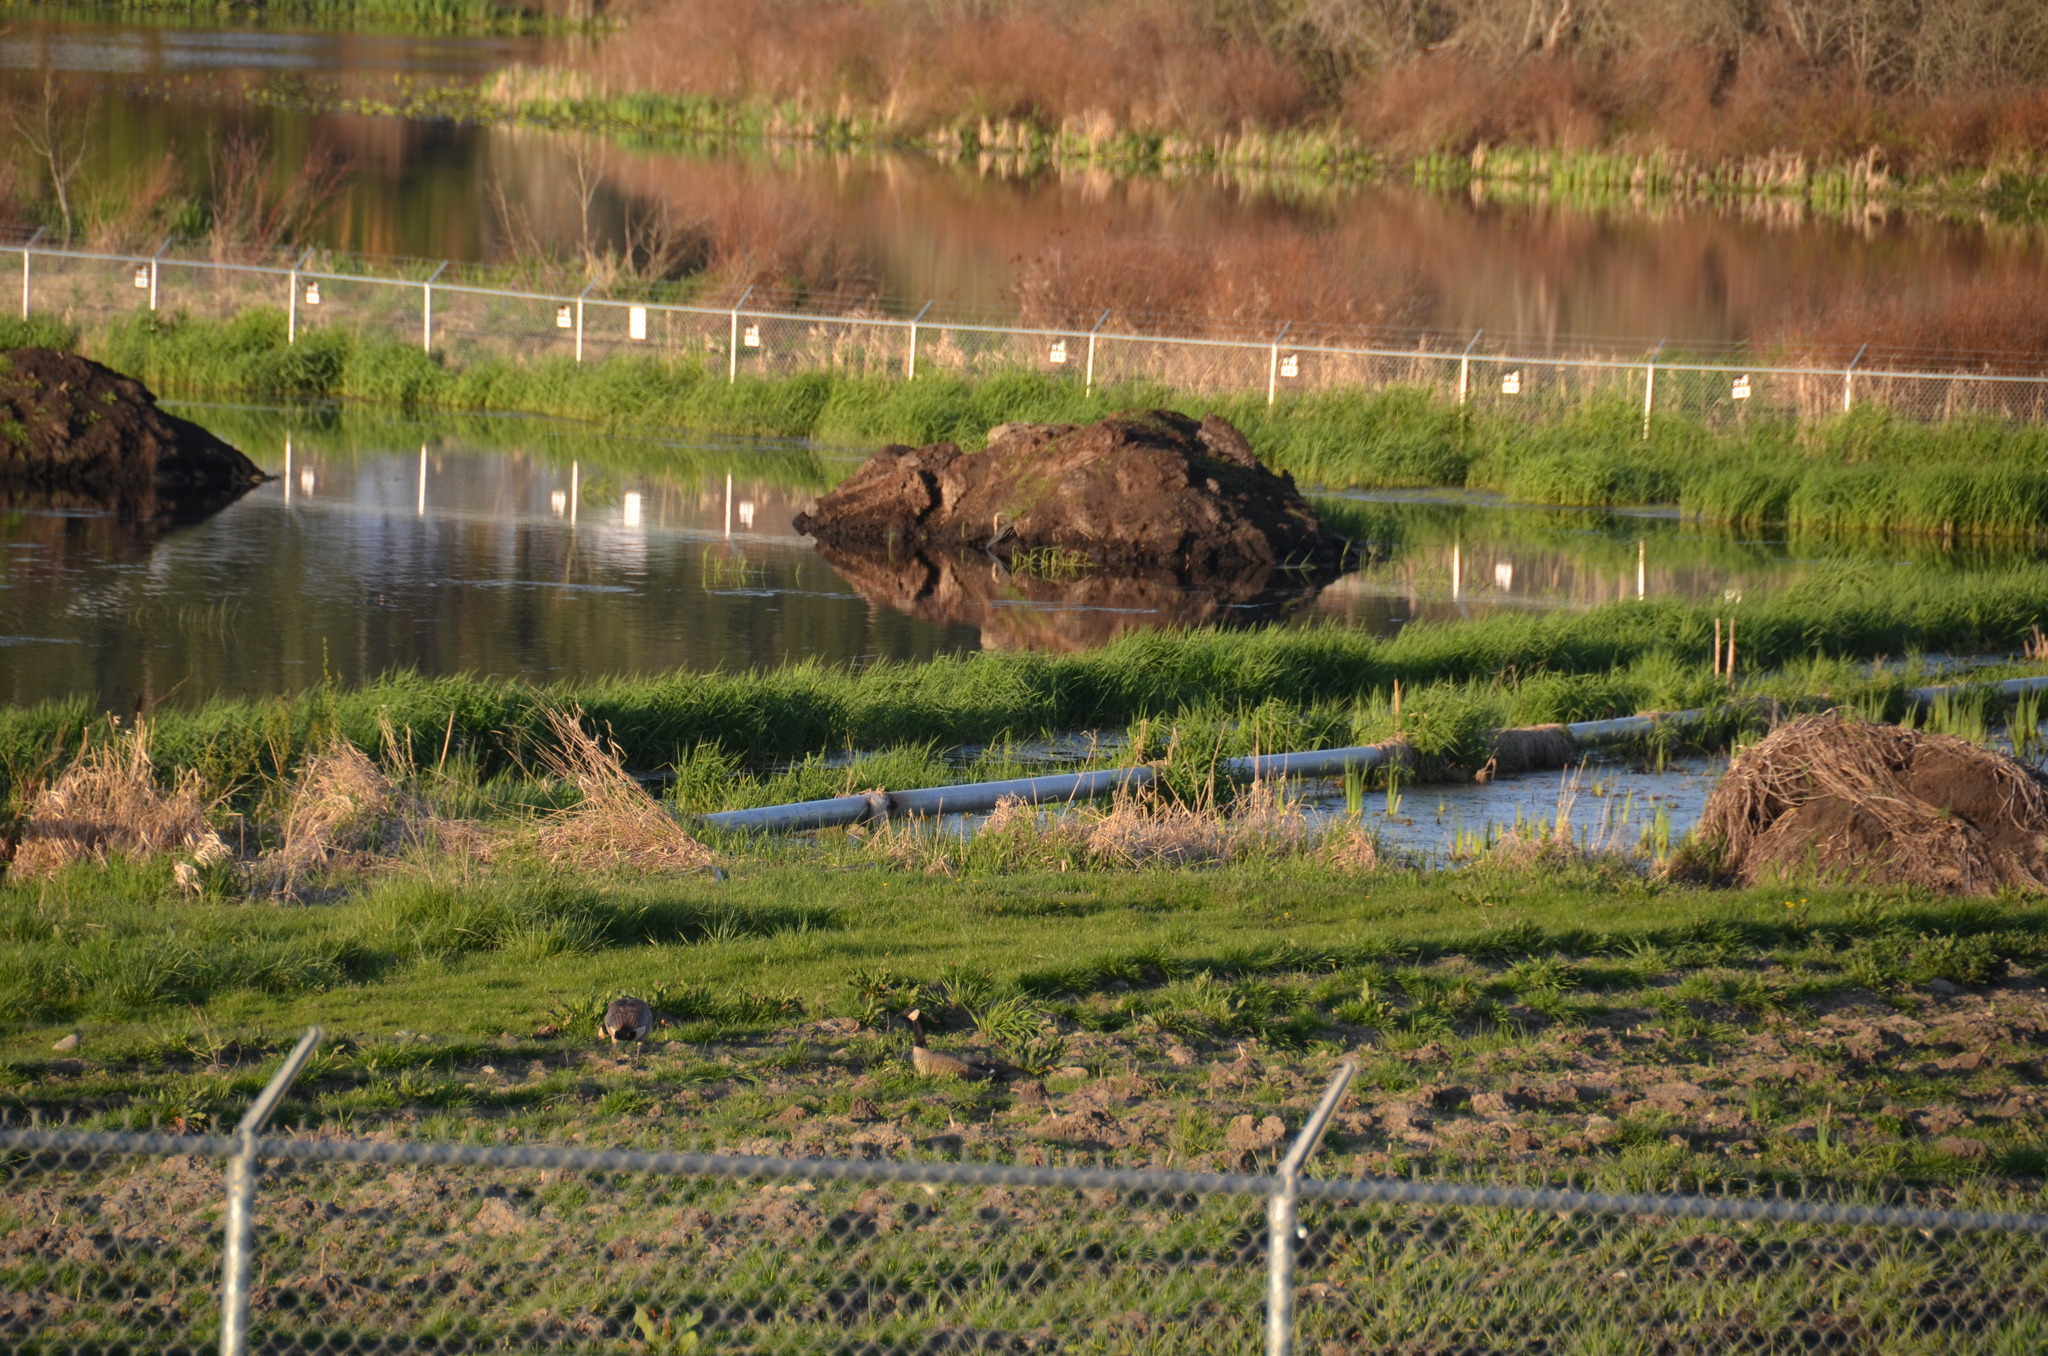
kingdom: Animalia
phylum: Chordata
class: Aves
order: Anseriformes
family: Anatidae
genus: Branta
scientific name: Branta canadensis
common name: Canada goose
